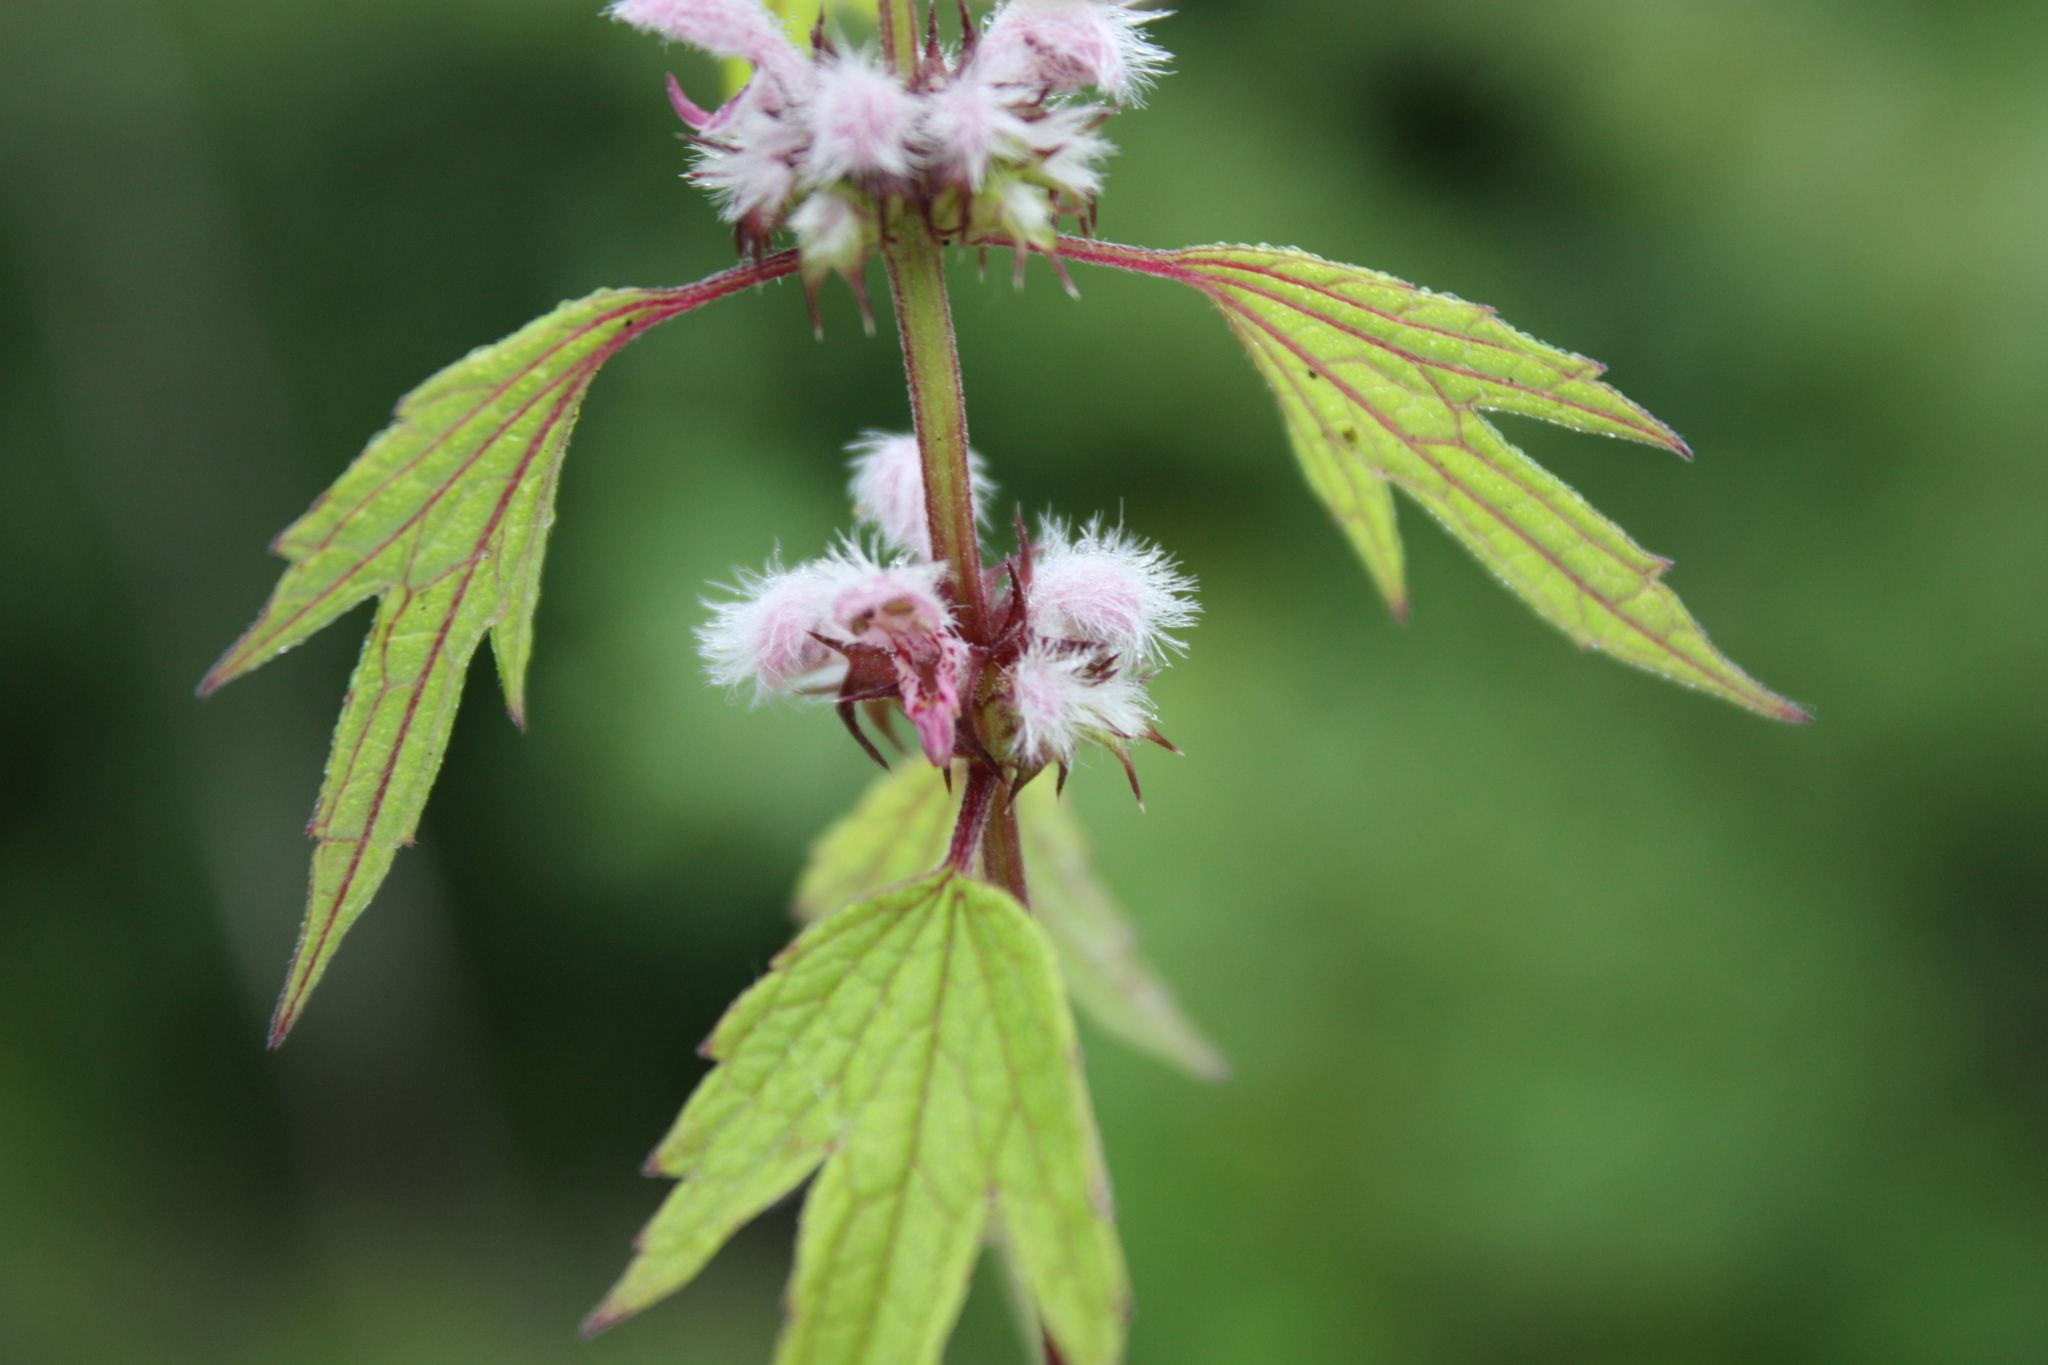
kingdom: Plantae
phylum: Tracheophyta
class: Magnoliopsida
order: Lamiales
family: Lamiaceae
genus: Leonurus
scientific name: Leonurus cardiaca
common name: Motherwort
